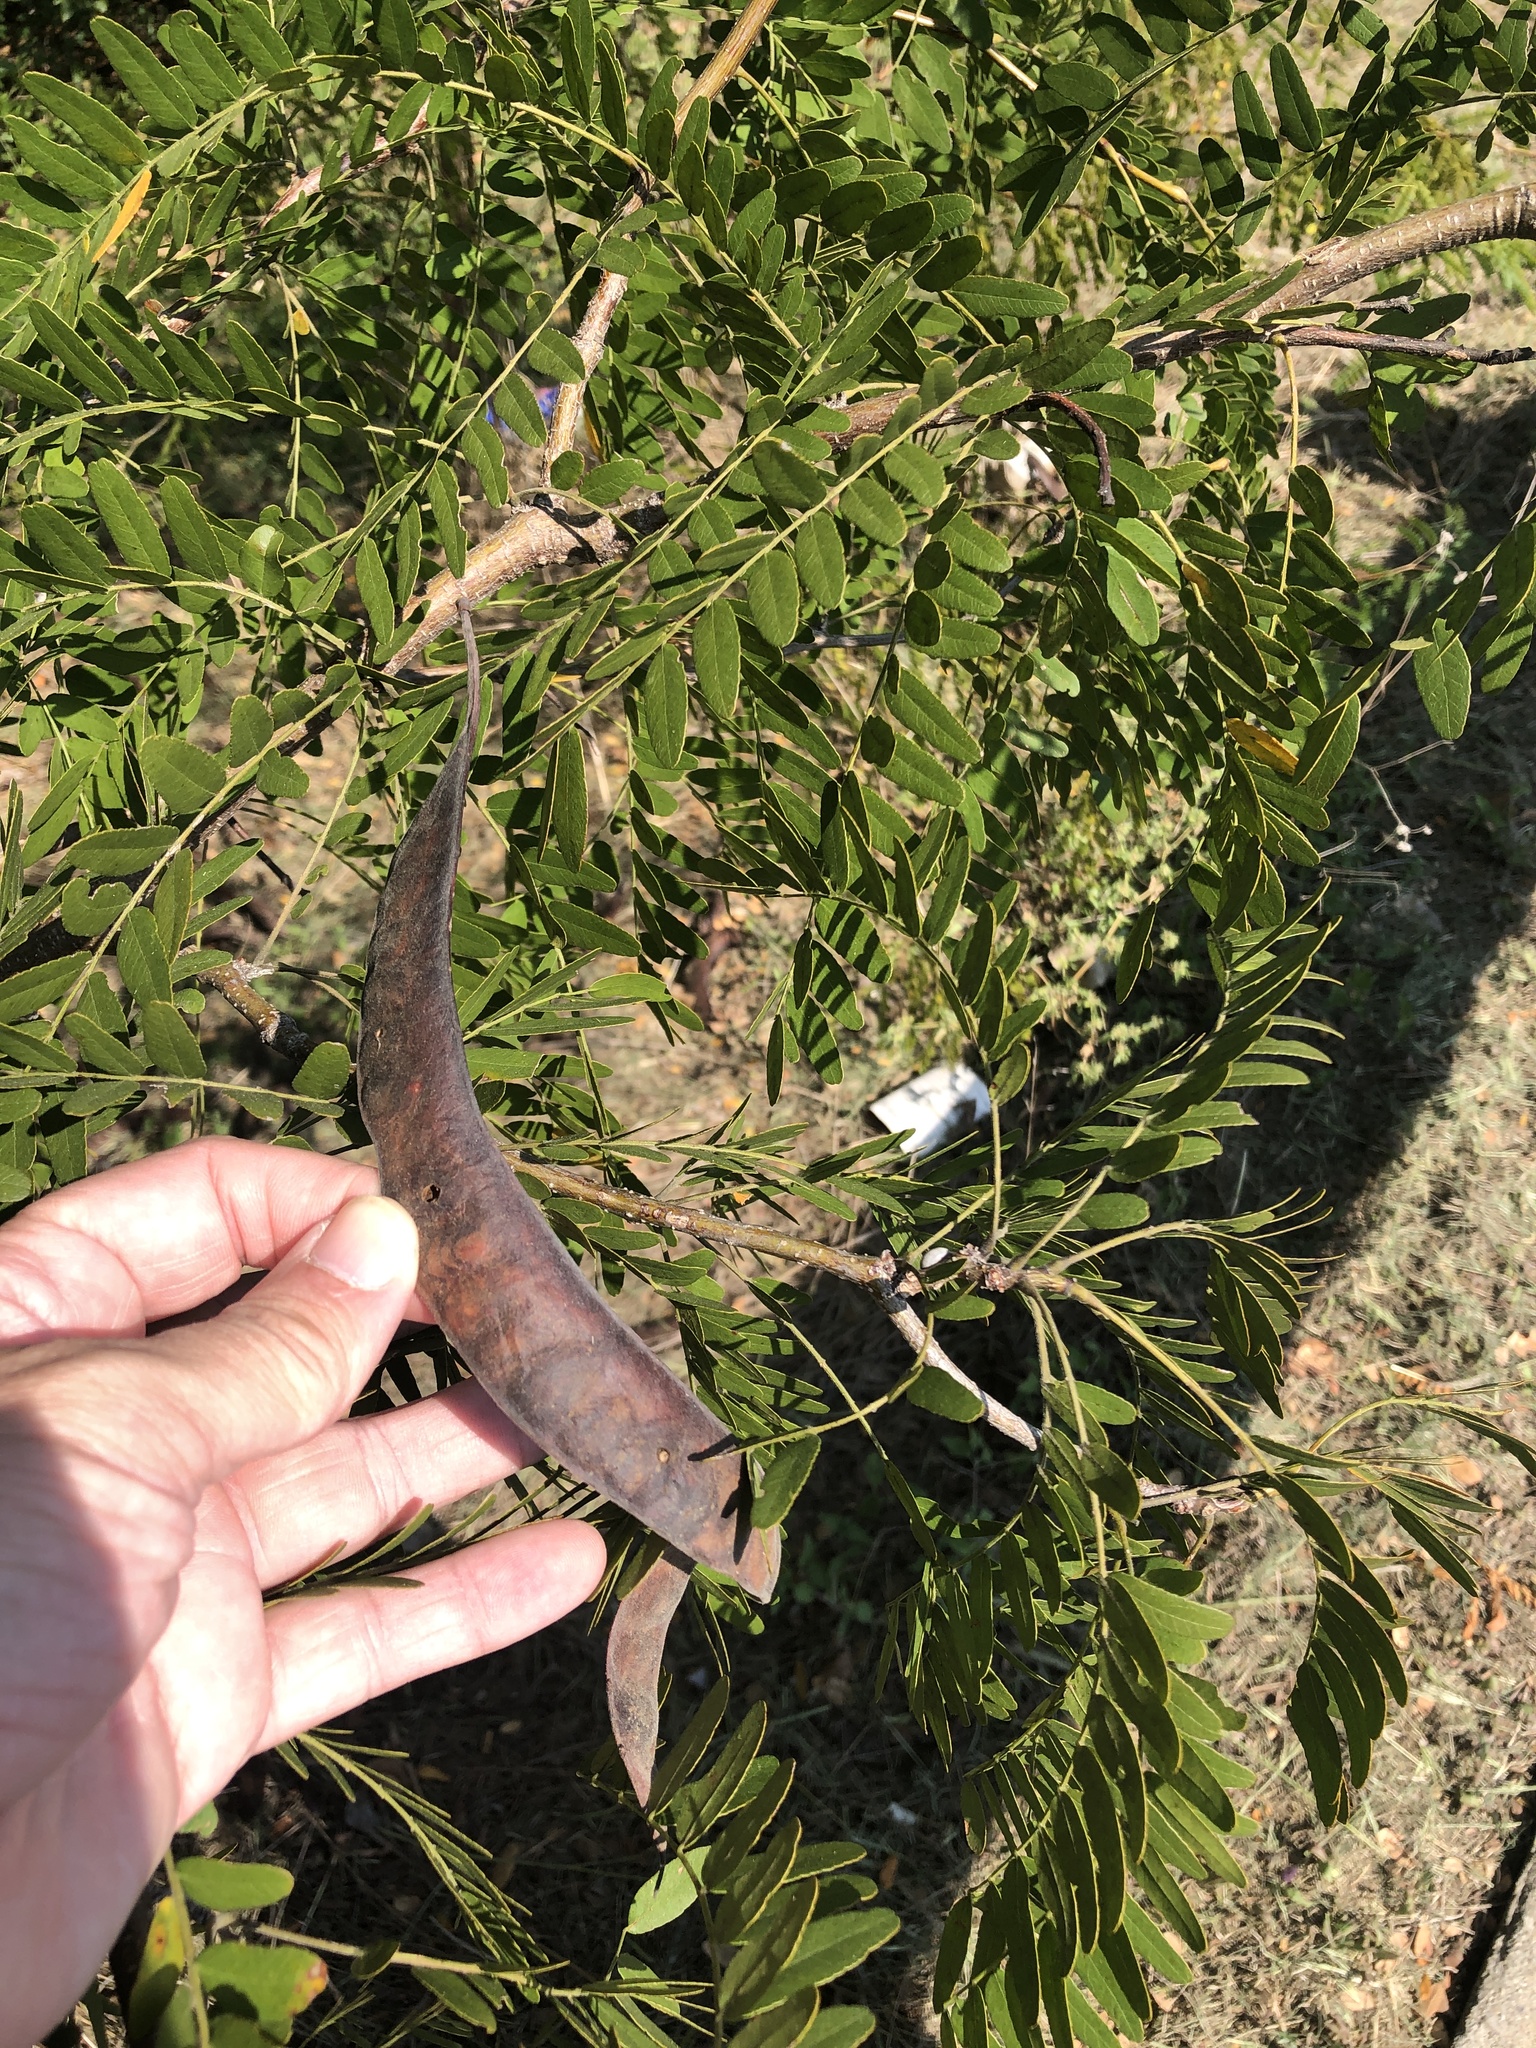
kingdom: Plantae
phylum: Tracheophyta
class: Magnoliopsida
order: Fabales
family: Fabaceae
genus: Gleditsia
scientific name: Gleditsia triacanthos
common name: Common honeylocust
